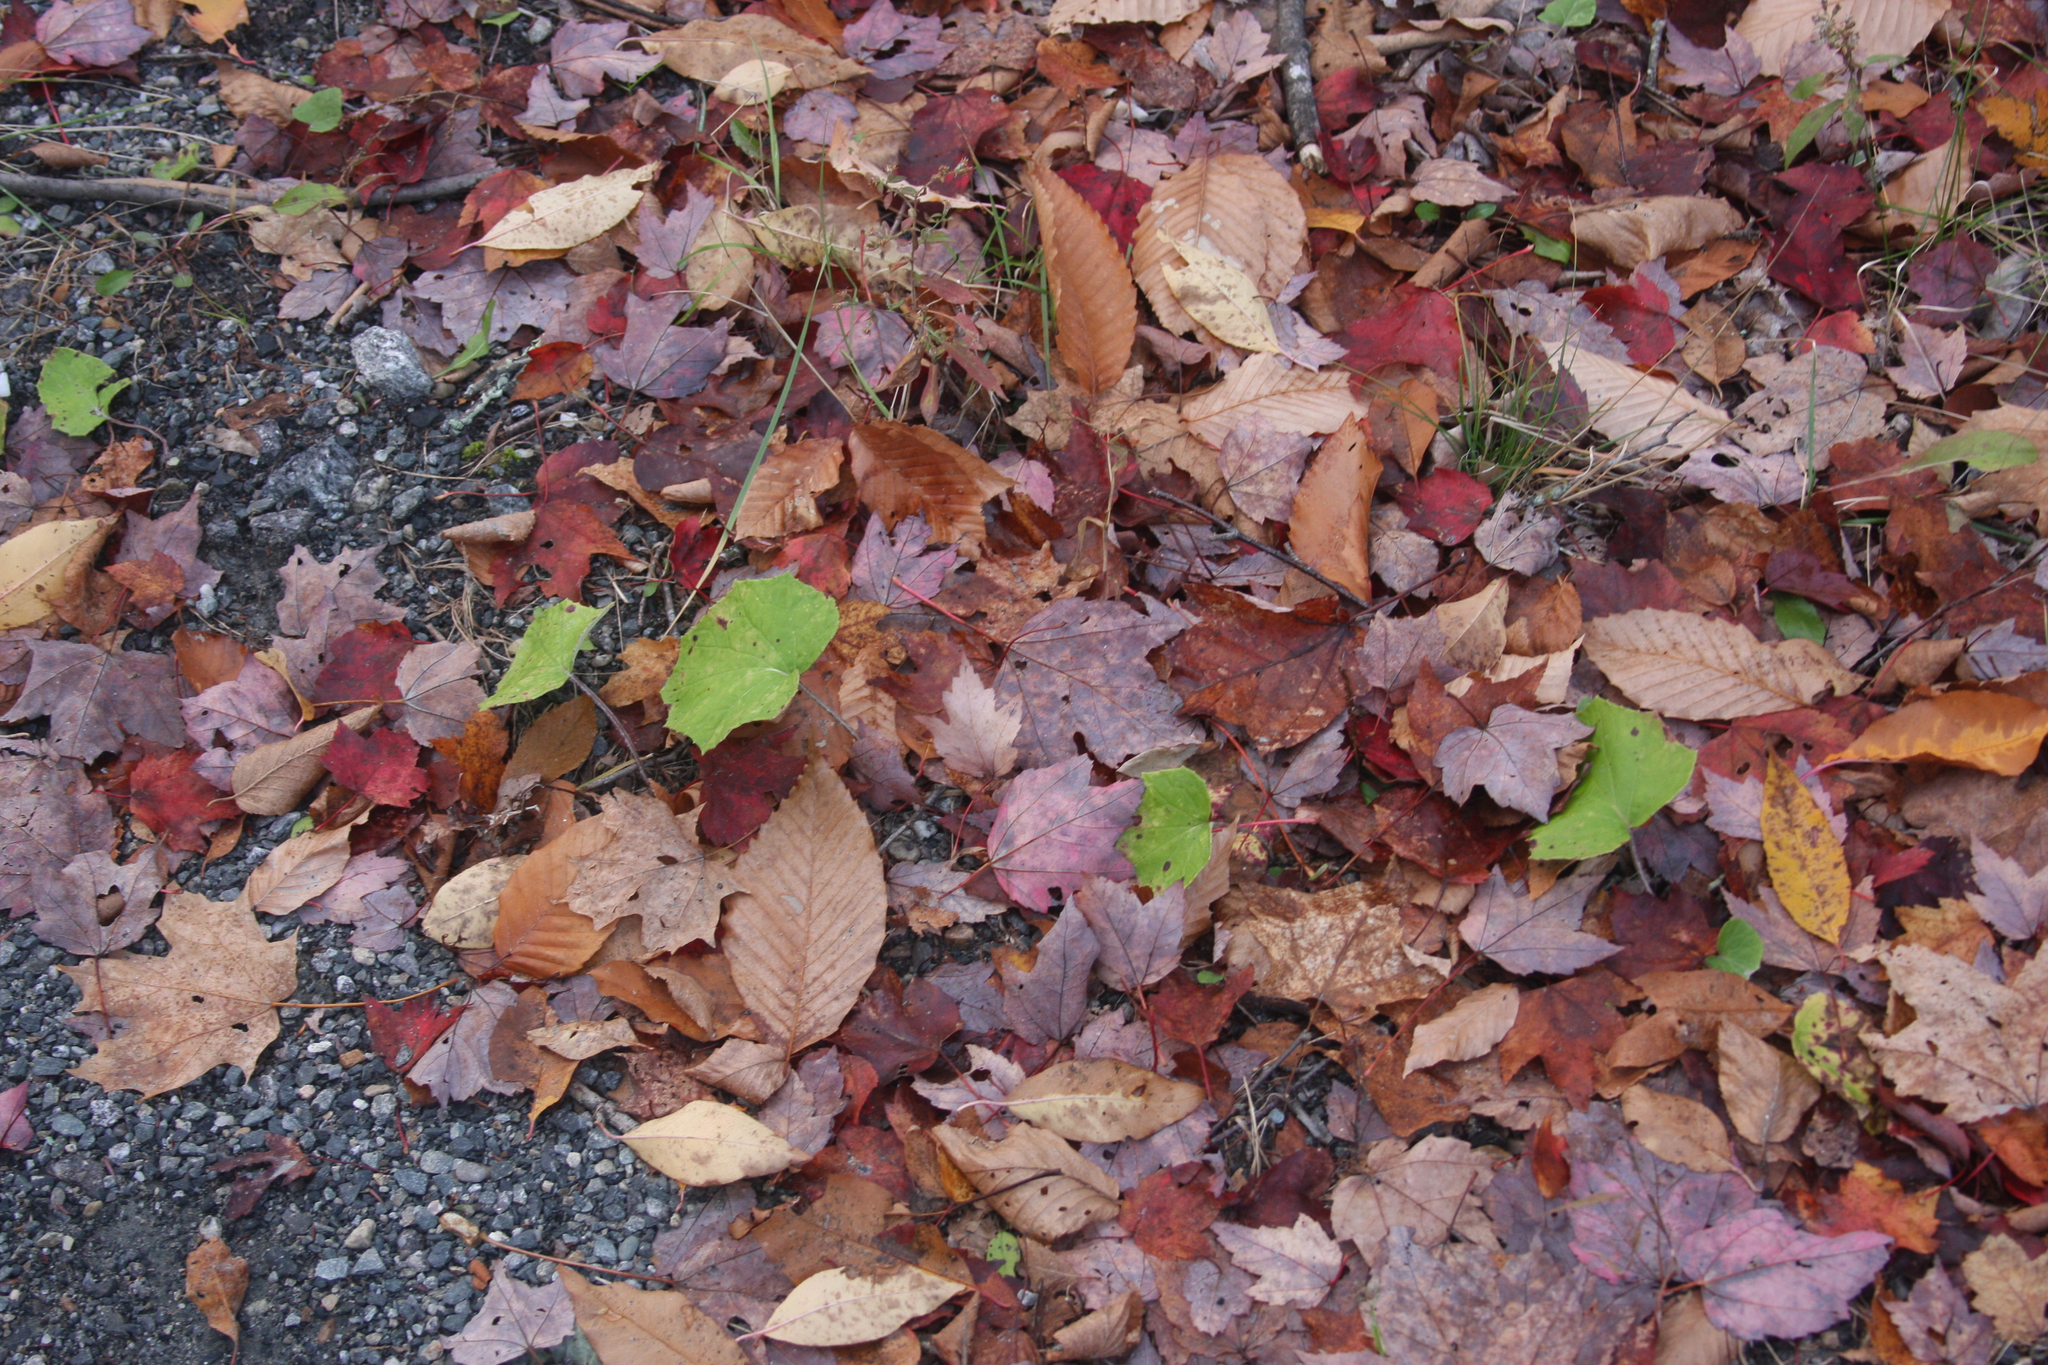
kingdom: Plantae
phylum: Tracheophyta
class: Magnoliopsida
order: Asterales
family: Asteraceae
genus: Tussilago
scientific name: Tussilago farfara
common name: Coltsfoot
